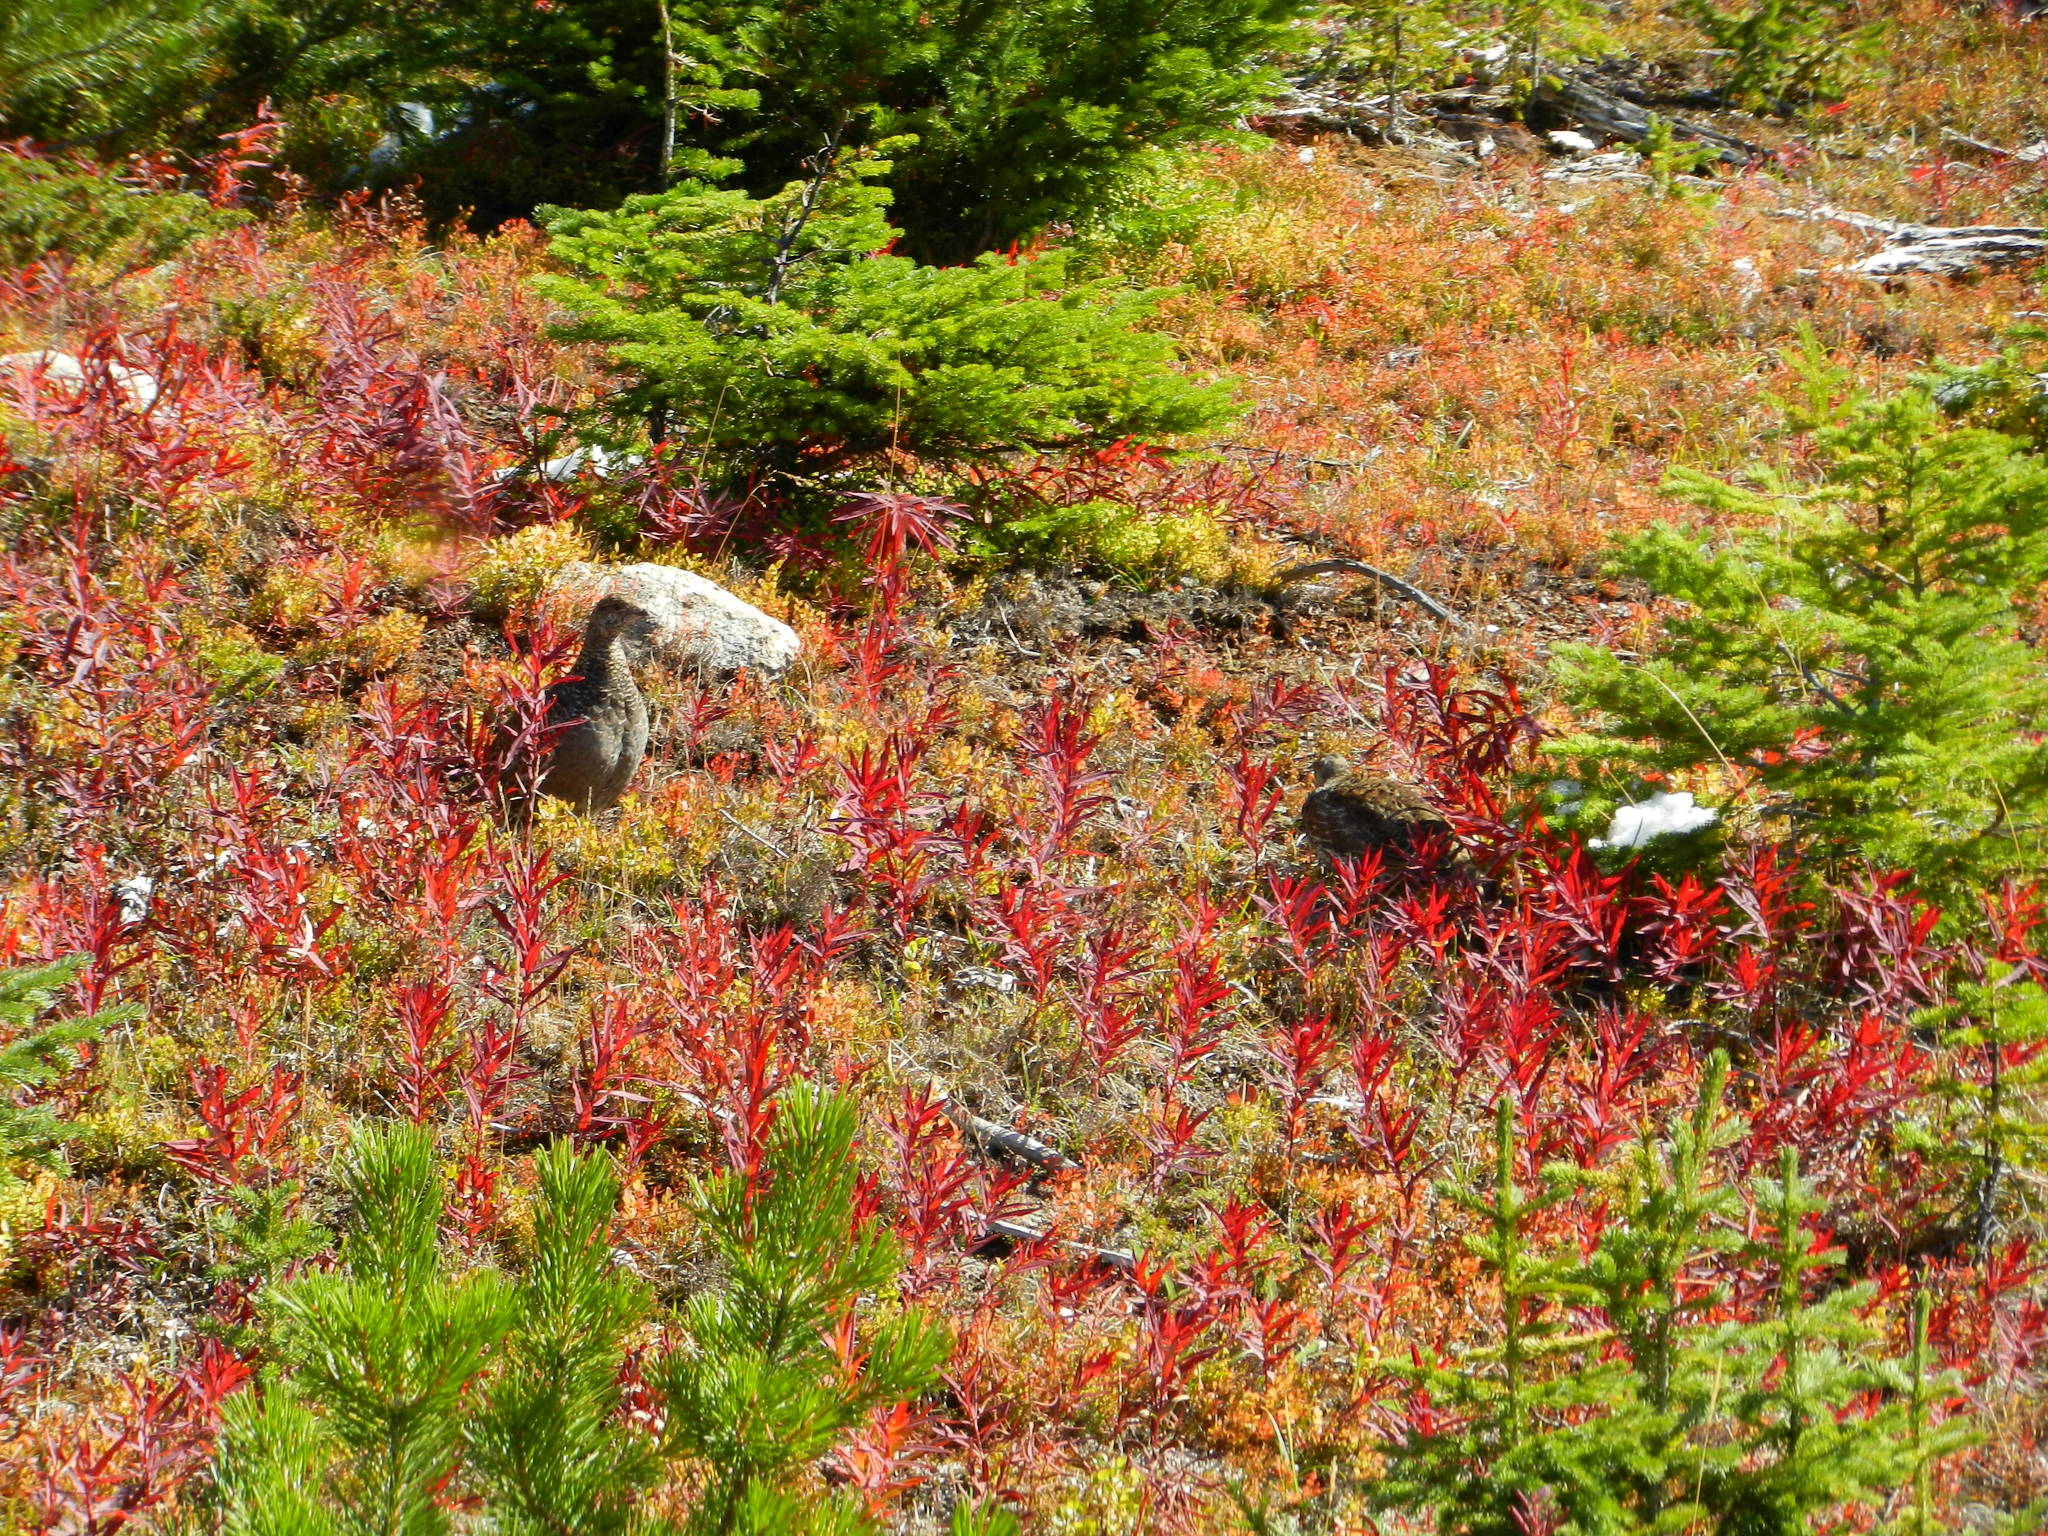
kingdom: Animalia
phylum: Chordata
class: Aves
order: Galliformes
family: Phasianidae
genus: Dendragapus
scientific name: Dendragapus obscurus
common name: Dusky grouse
